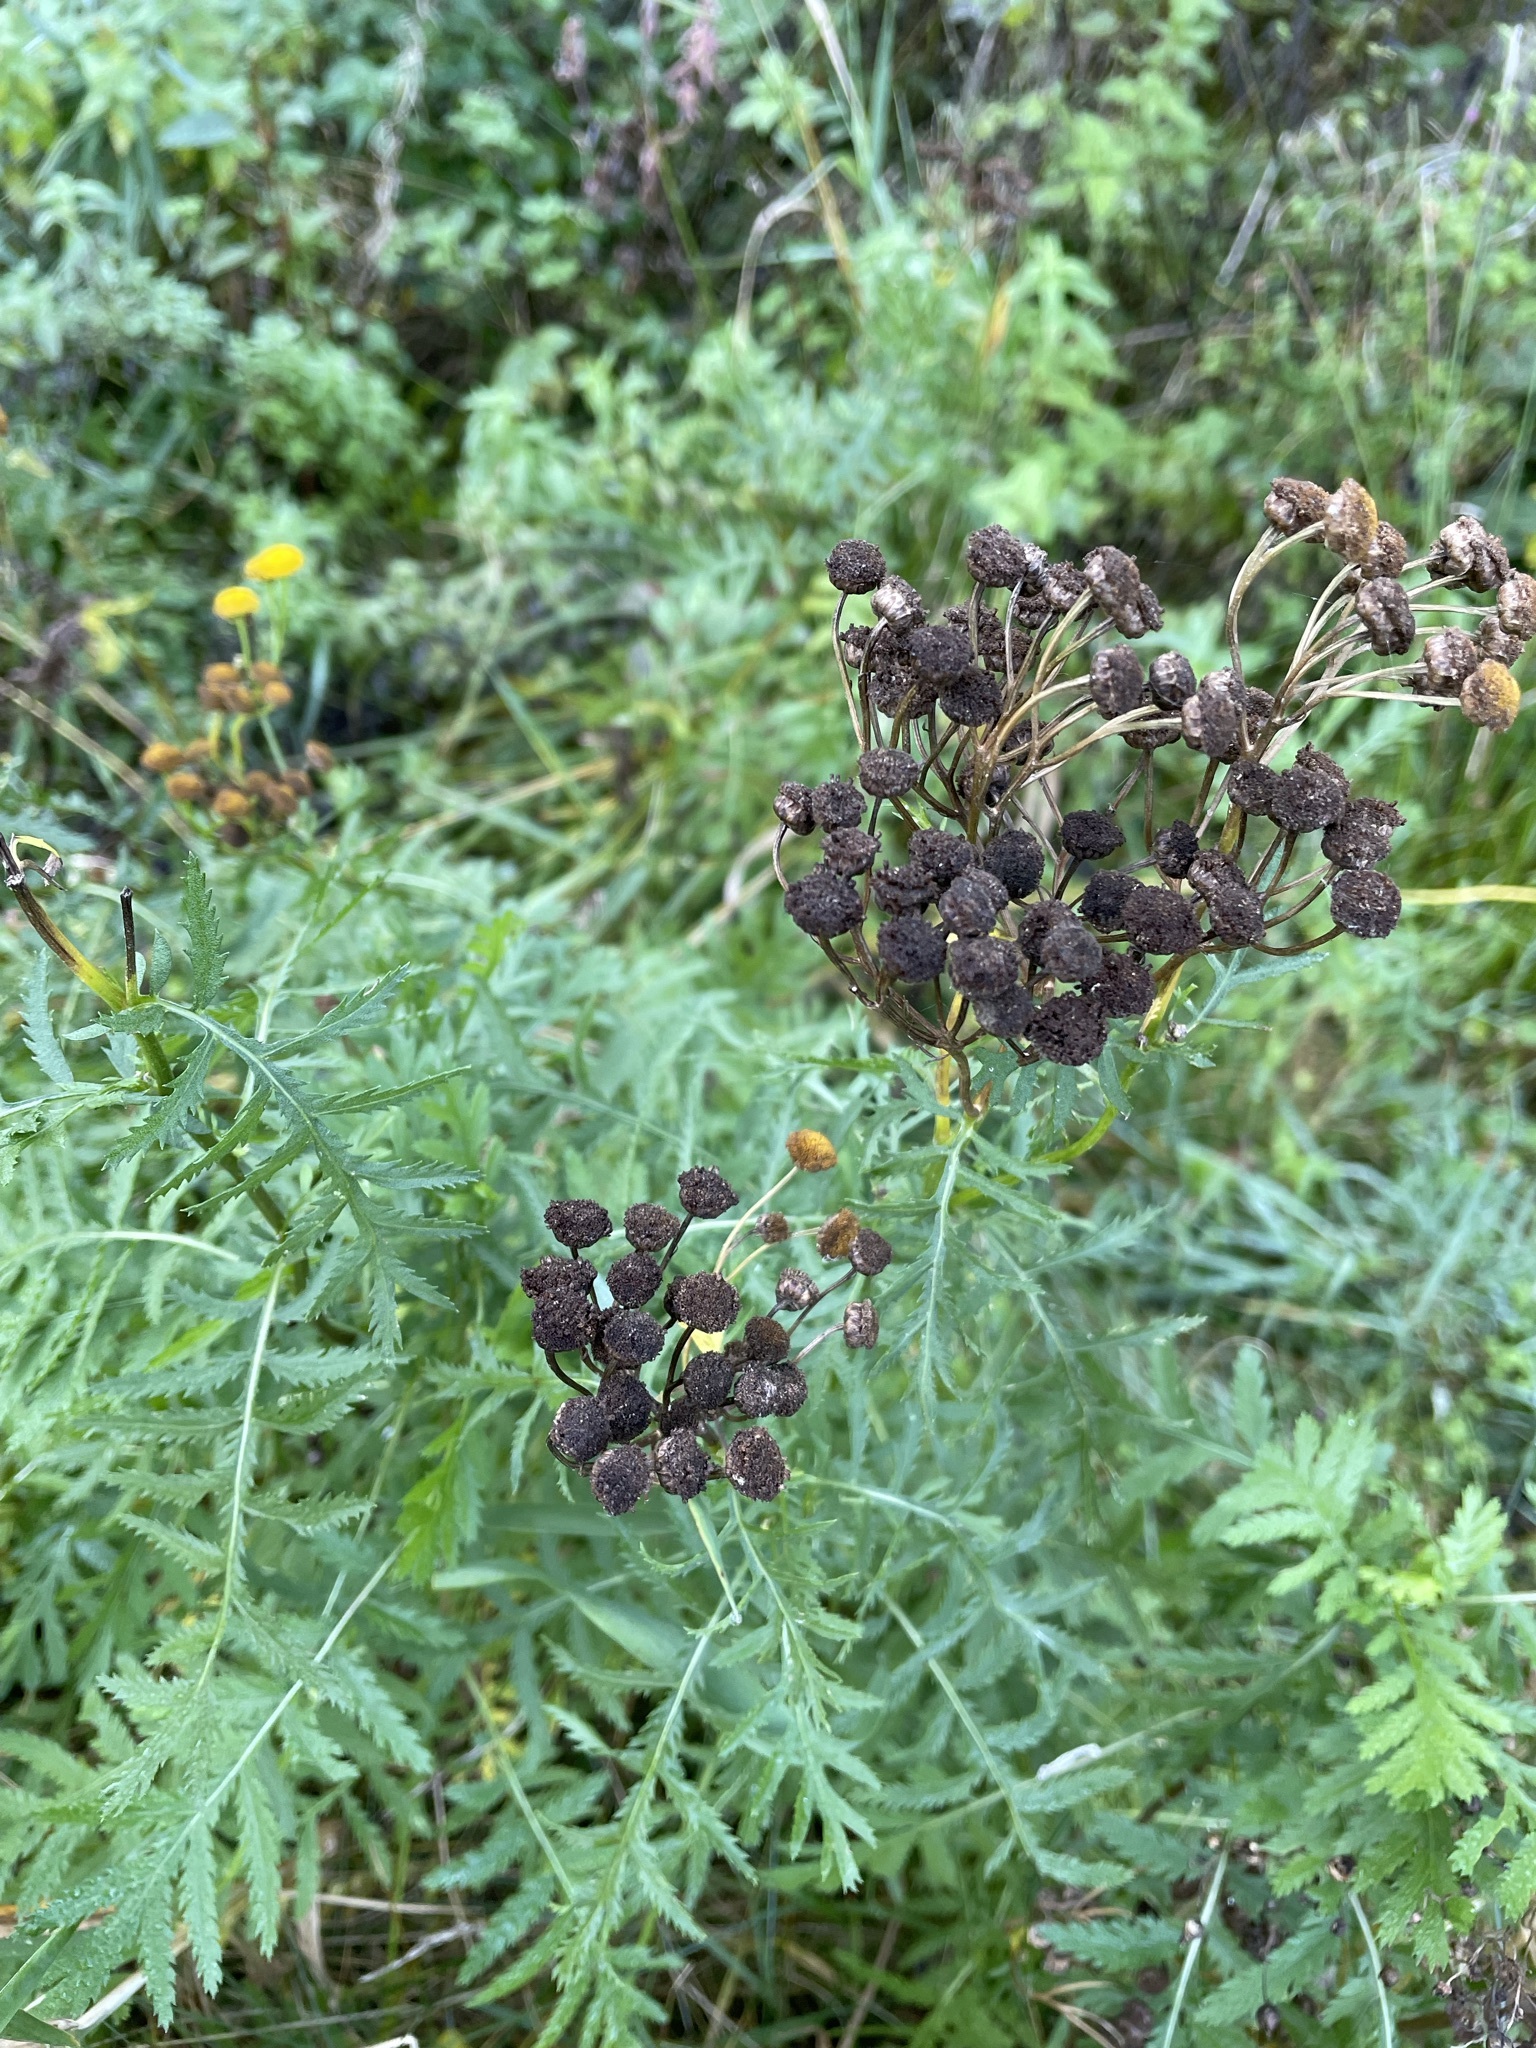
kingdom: Plantae
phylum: Tracheophyta
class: Magnoliopsida
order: Asterales
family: Asteraceae
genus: Tanacetum
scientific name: Tanacetum vulgare
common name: Common tansy
